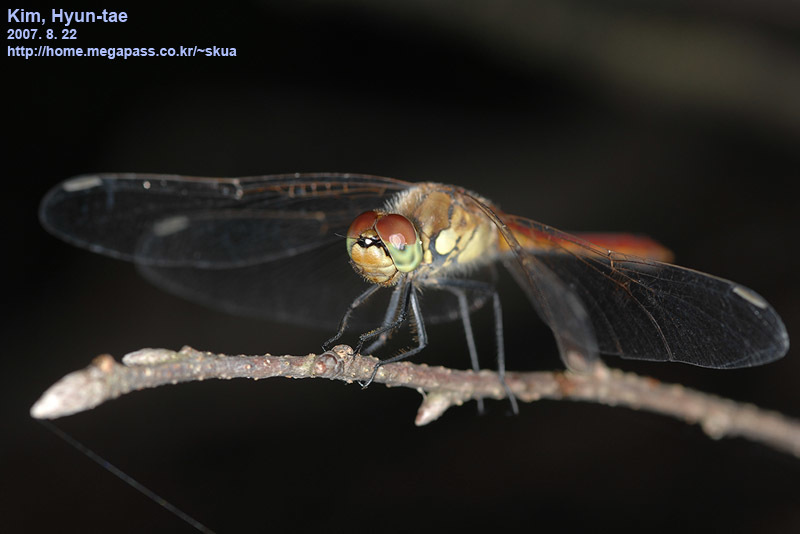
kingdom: Animalia
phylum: Arthropoda
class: Insecta
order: Odonata
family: Libellulidae
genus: Sympetrum
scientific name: Sympetrum depressiusculum
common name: Spotted darter
